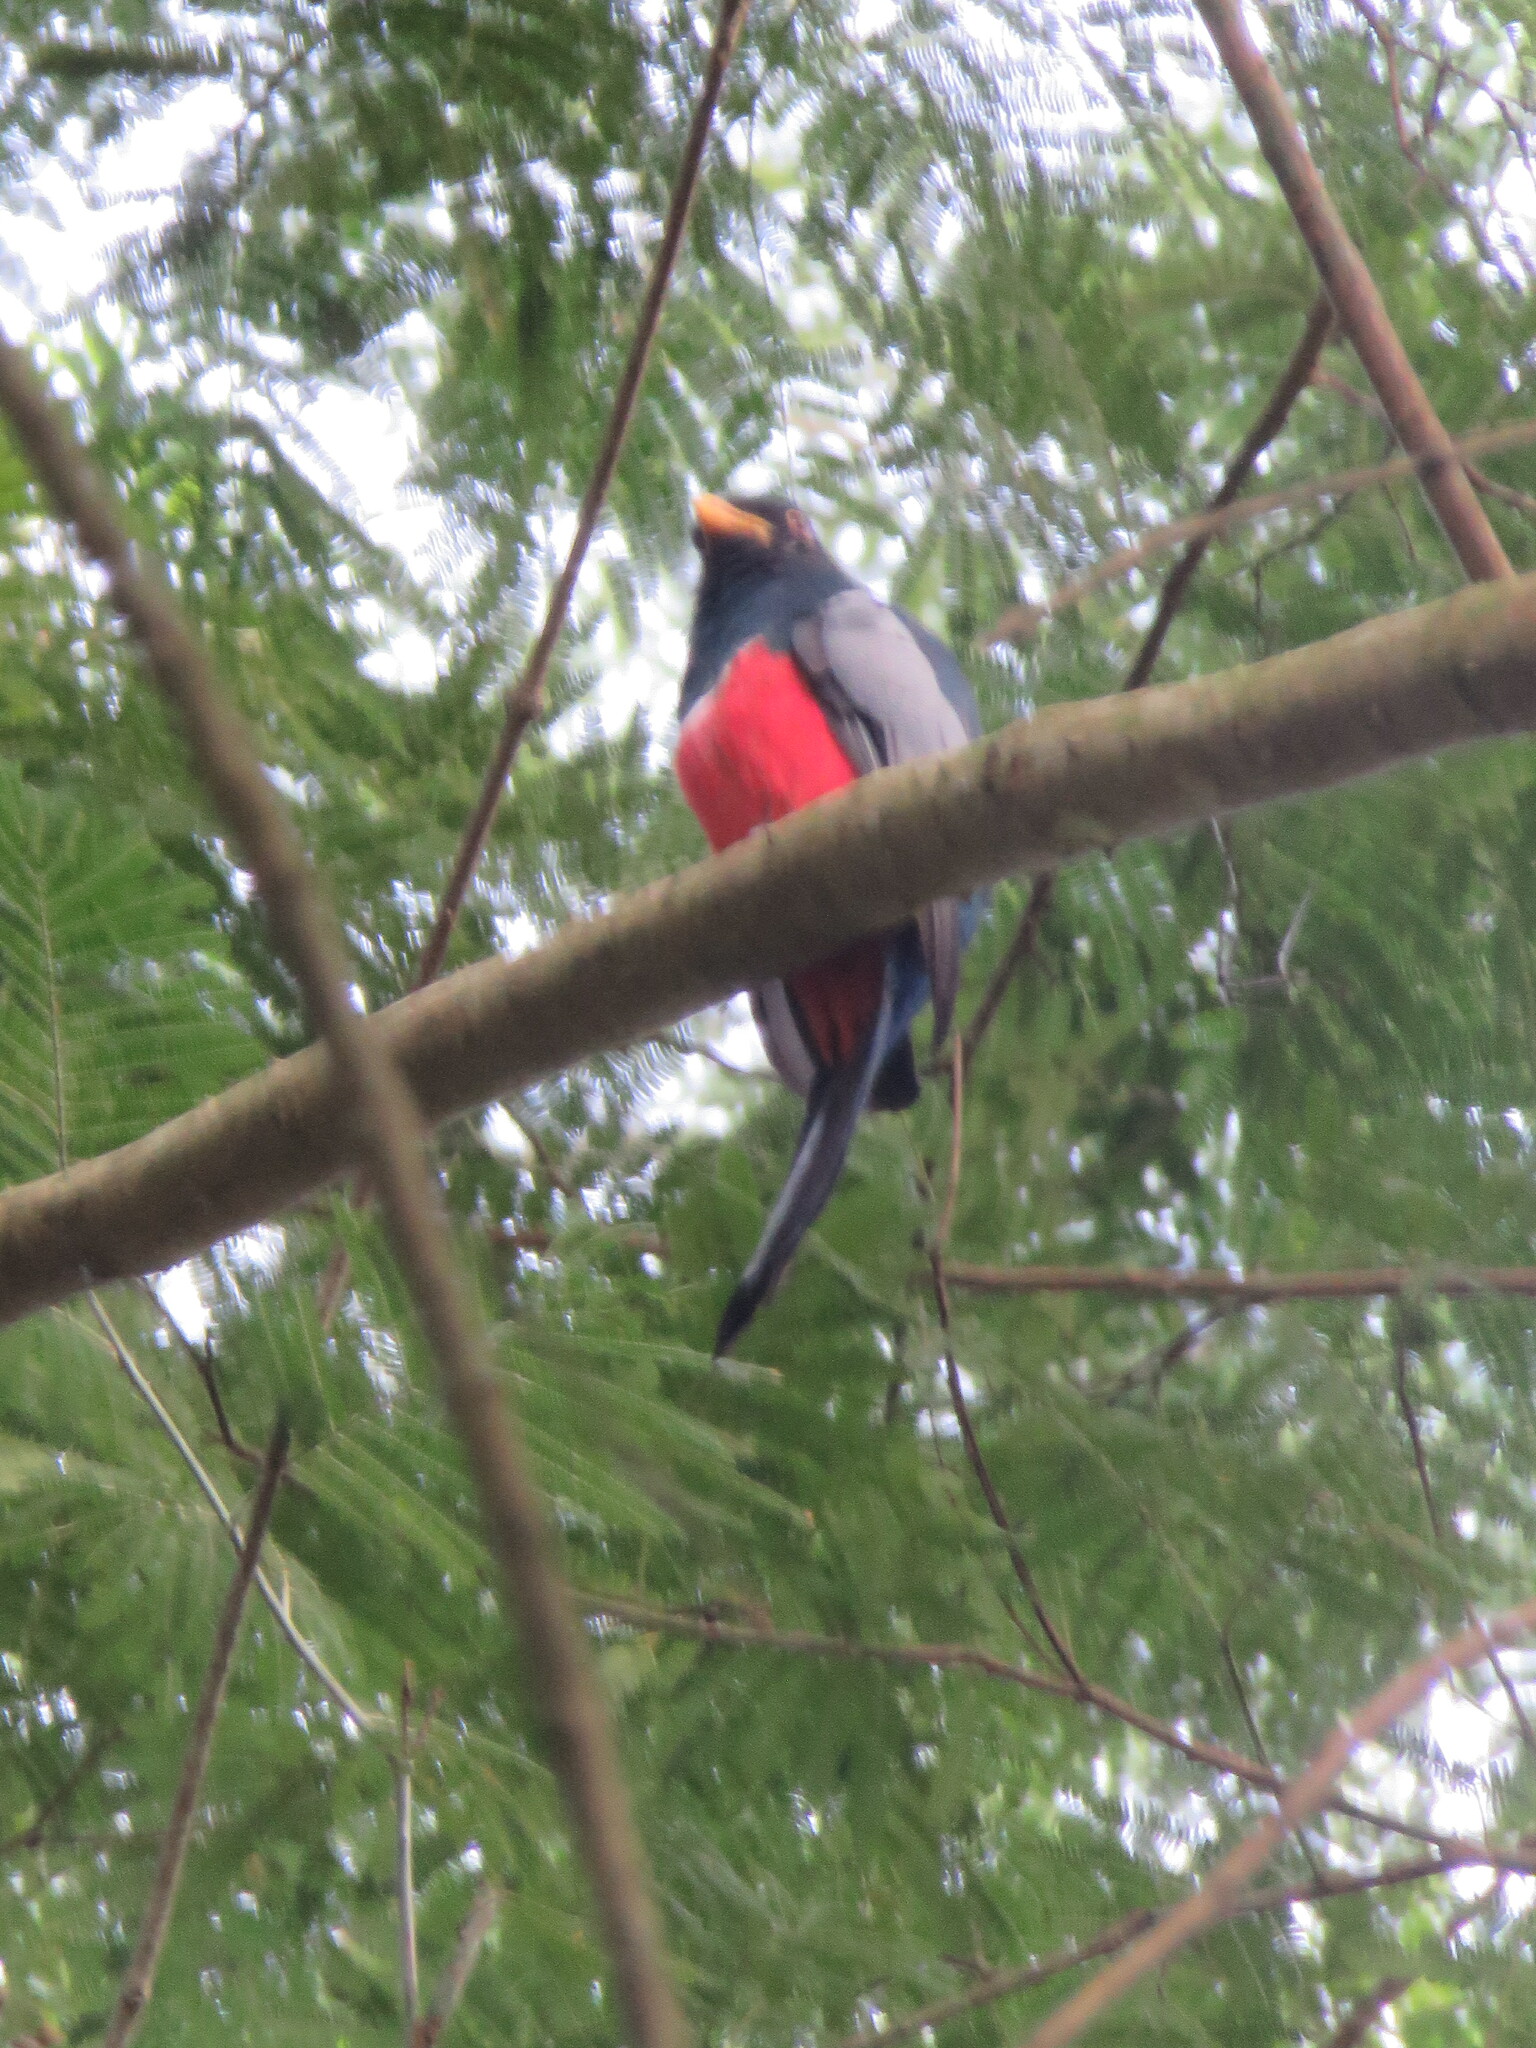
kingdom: Animalia
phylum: Chordata
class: Aves
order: Trogoniformes
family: Trogonidae
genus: Trogon
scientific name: Trogon melanurus
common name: Black-tailed trogon
